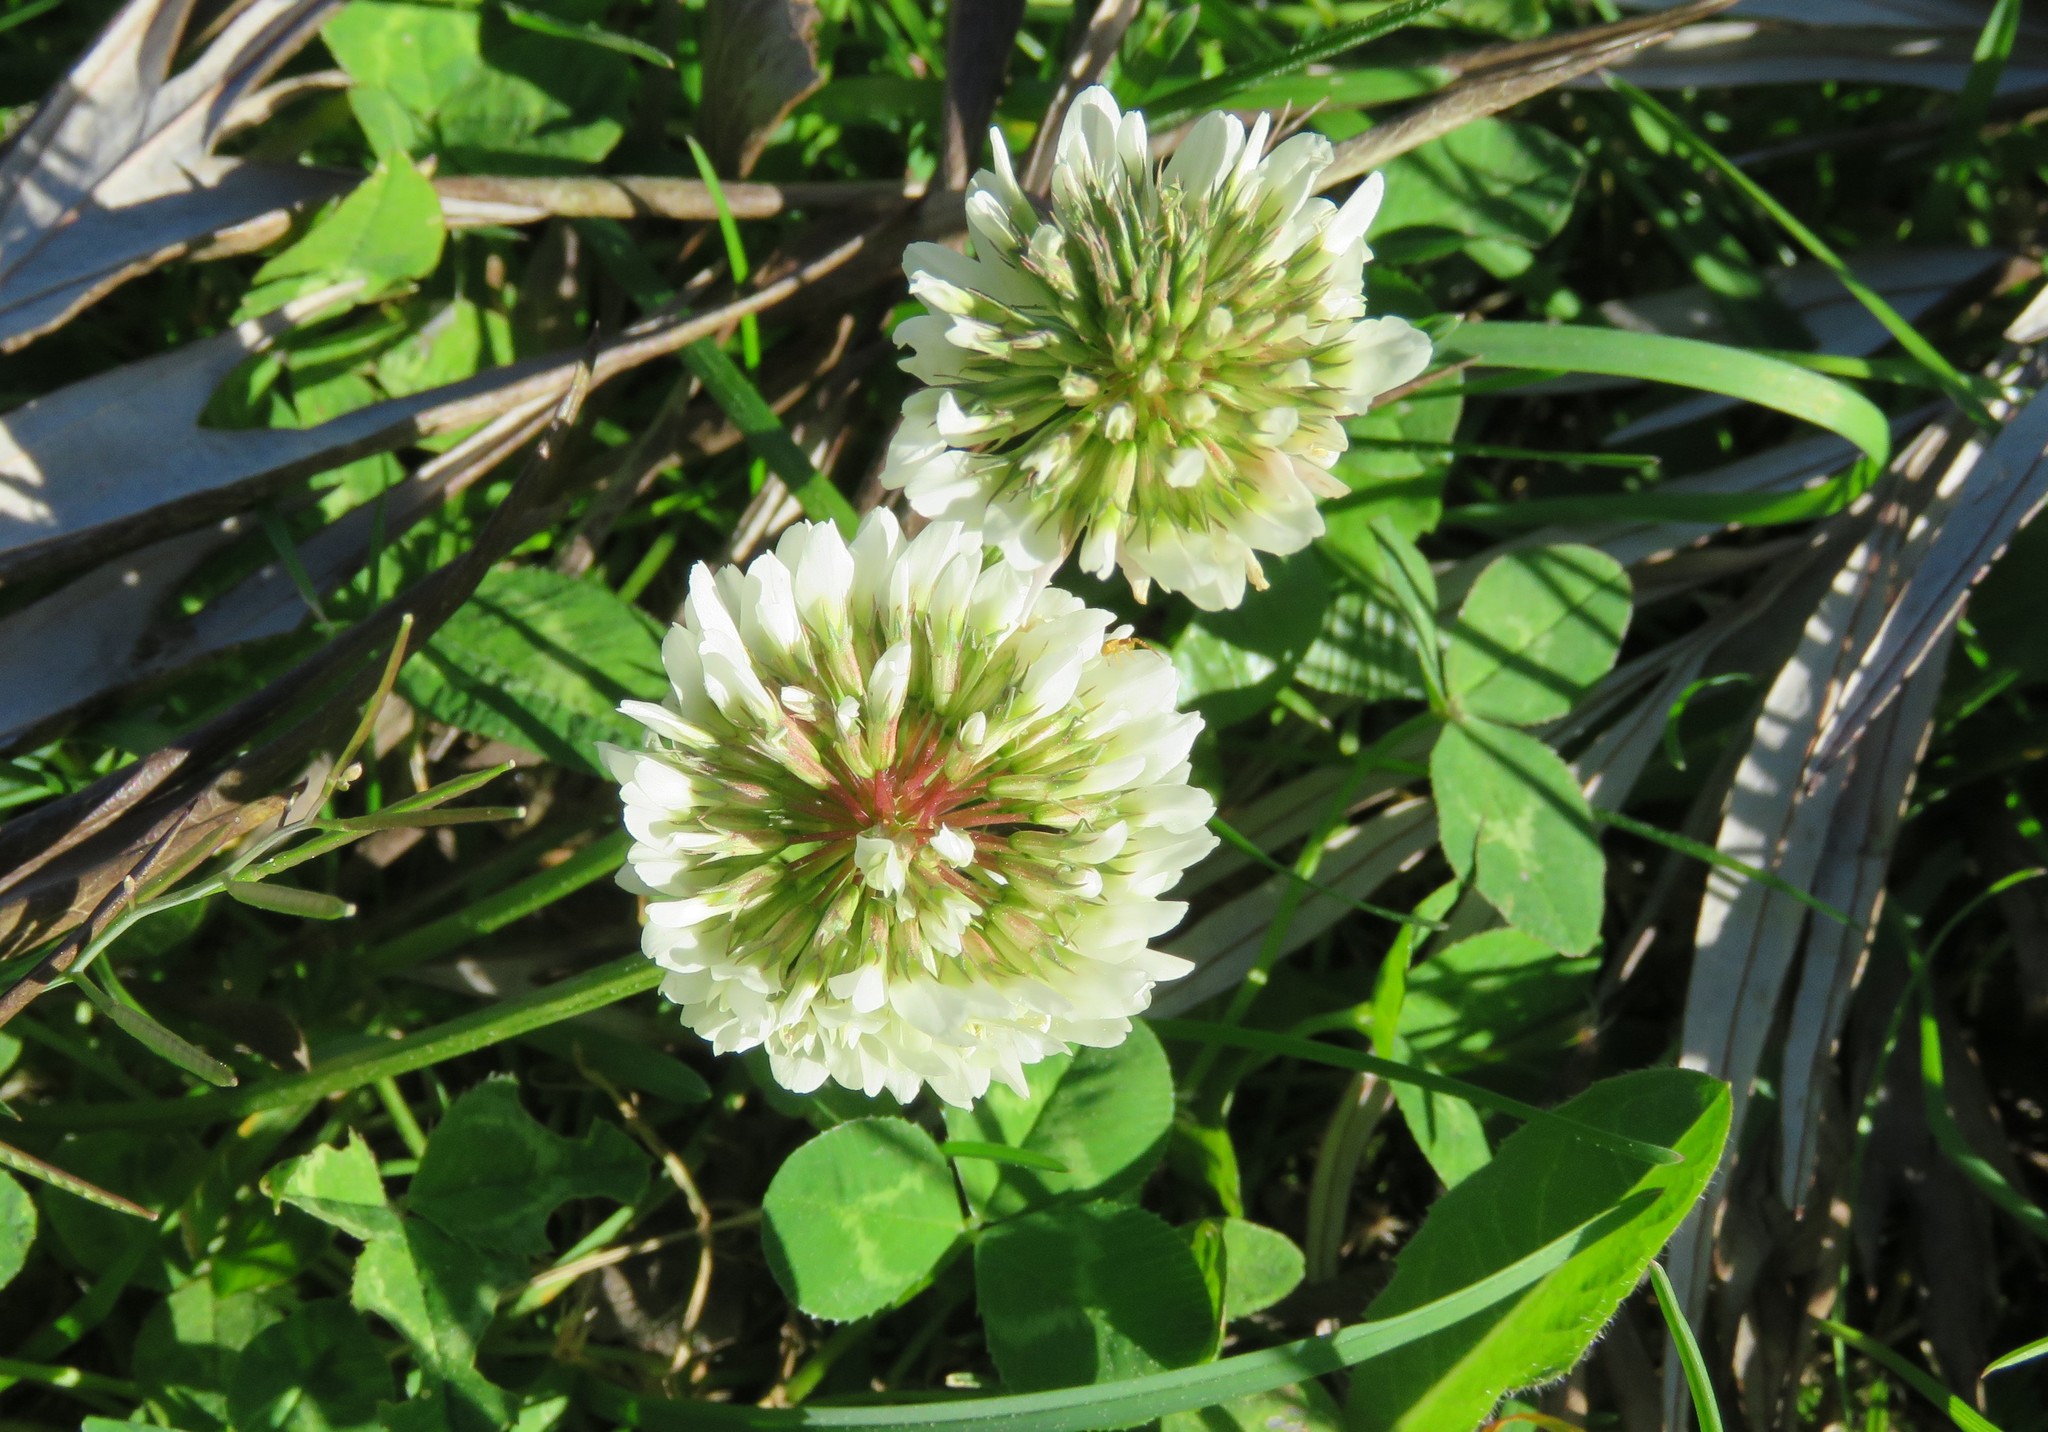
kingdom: Plantae
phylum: Tracheophyta
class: Magnoliopsida
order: Fabales
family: Fabaceae
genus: Trifolium
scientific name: Trifolium repens
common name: White clover
